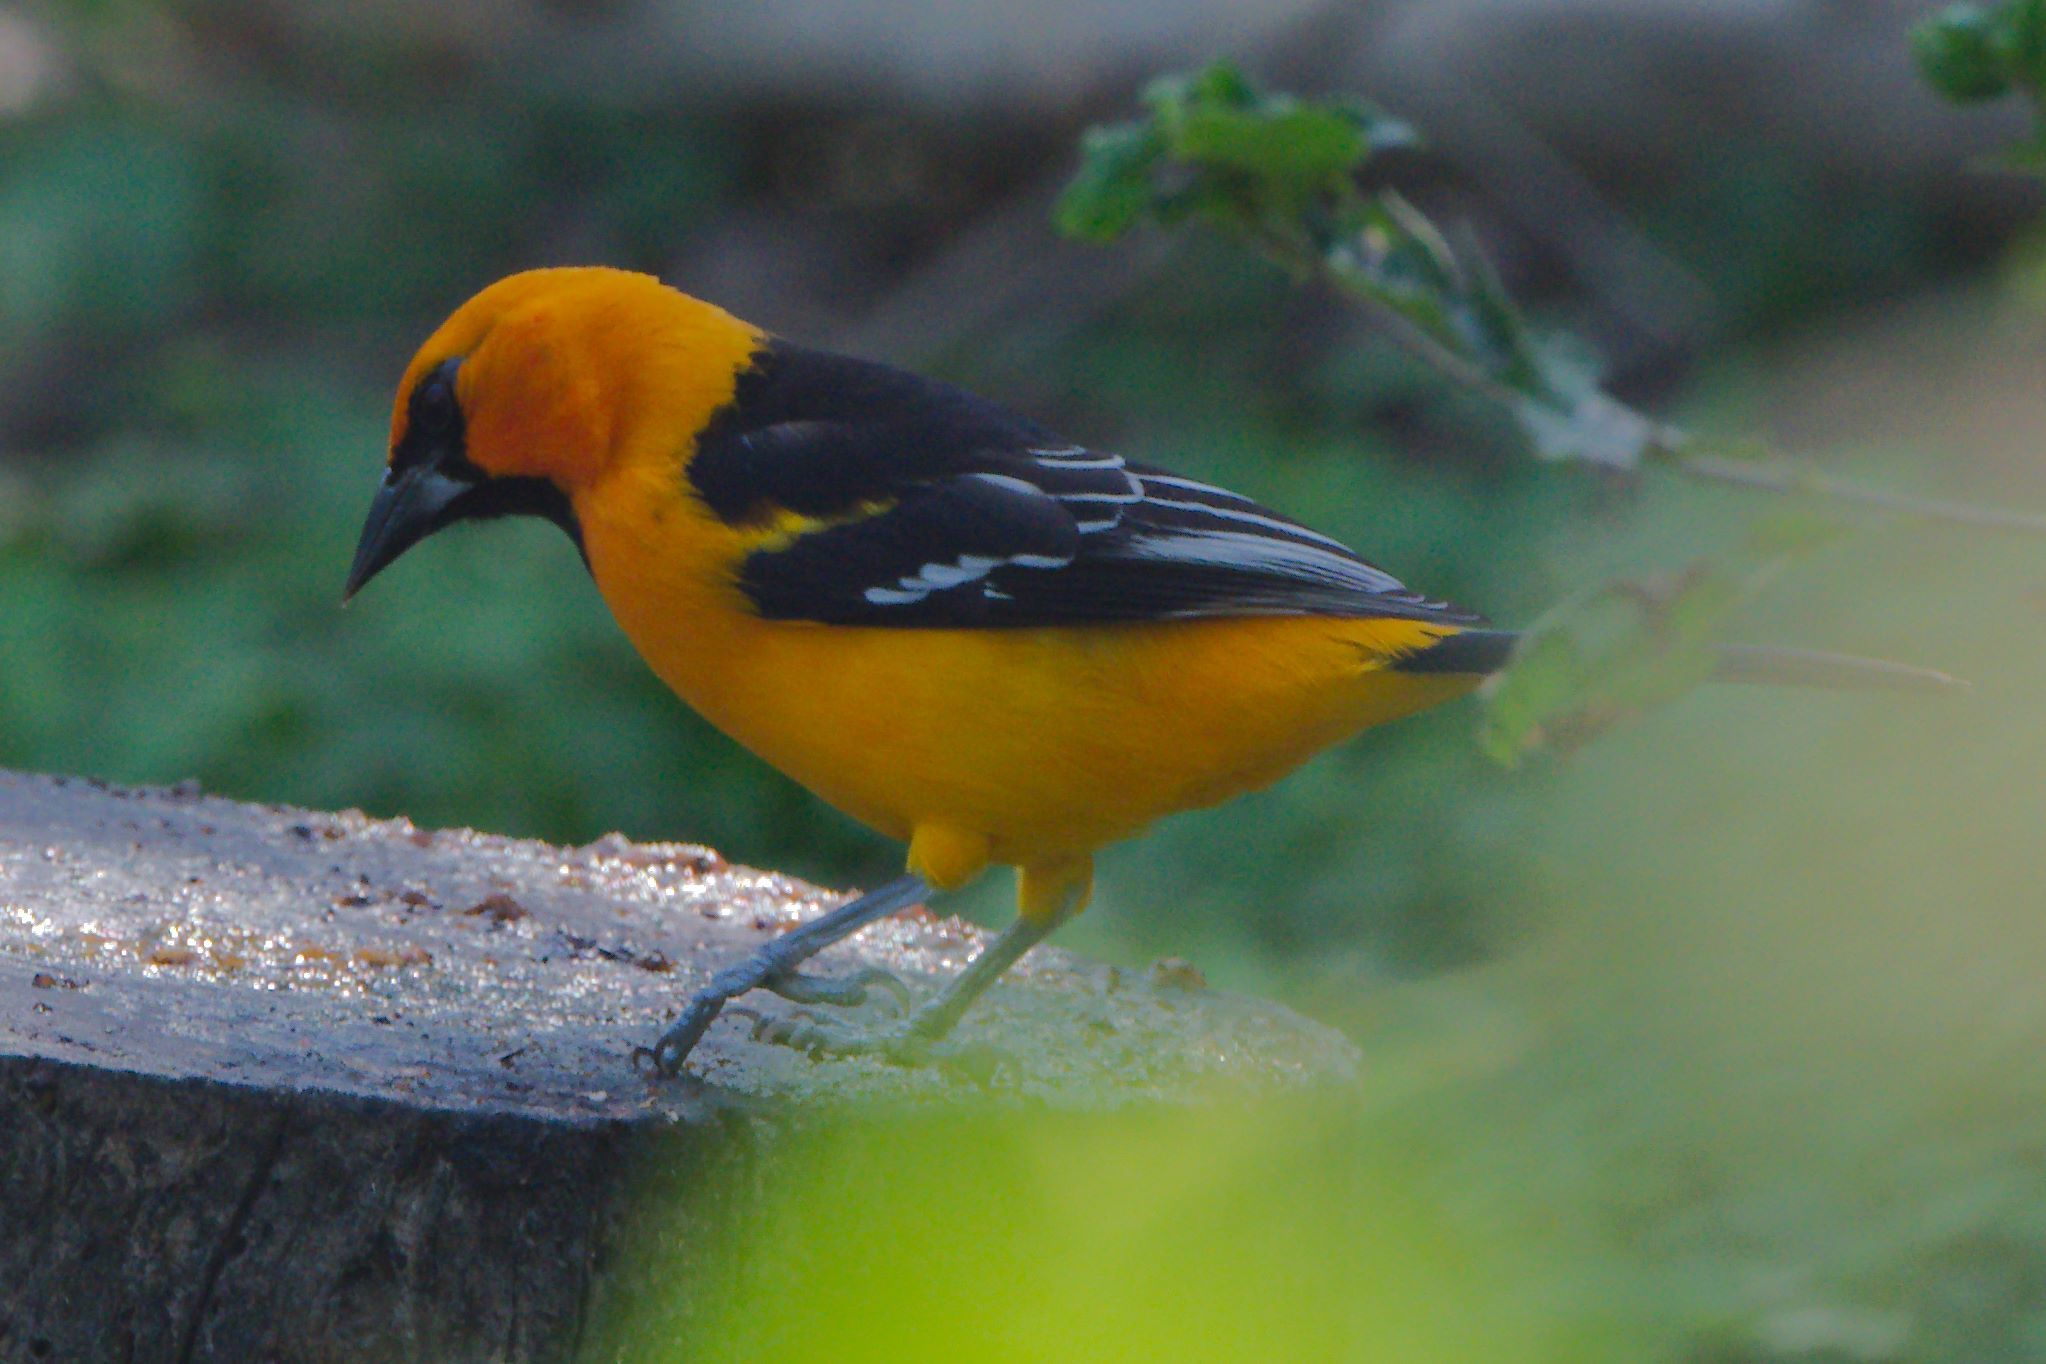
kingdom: Animalia
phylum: Chordata
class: Aves
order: Passeriformes
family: Icteridae
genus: Icterus
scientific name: Icterus gularis
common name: Altamira oriole
